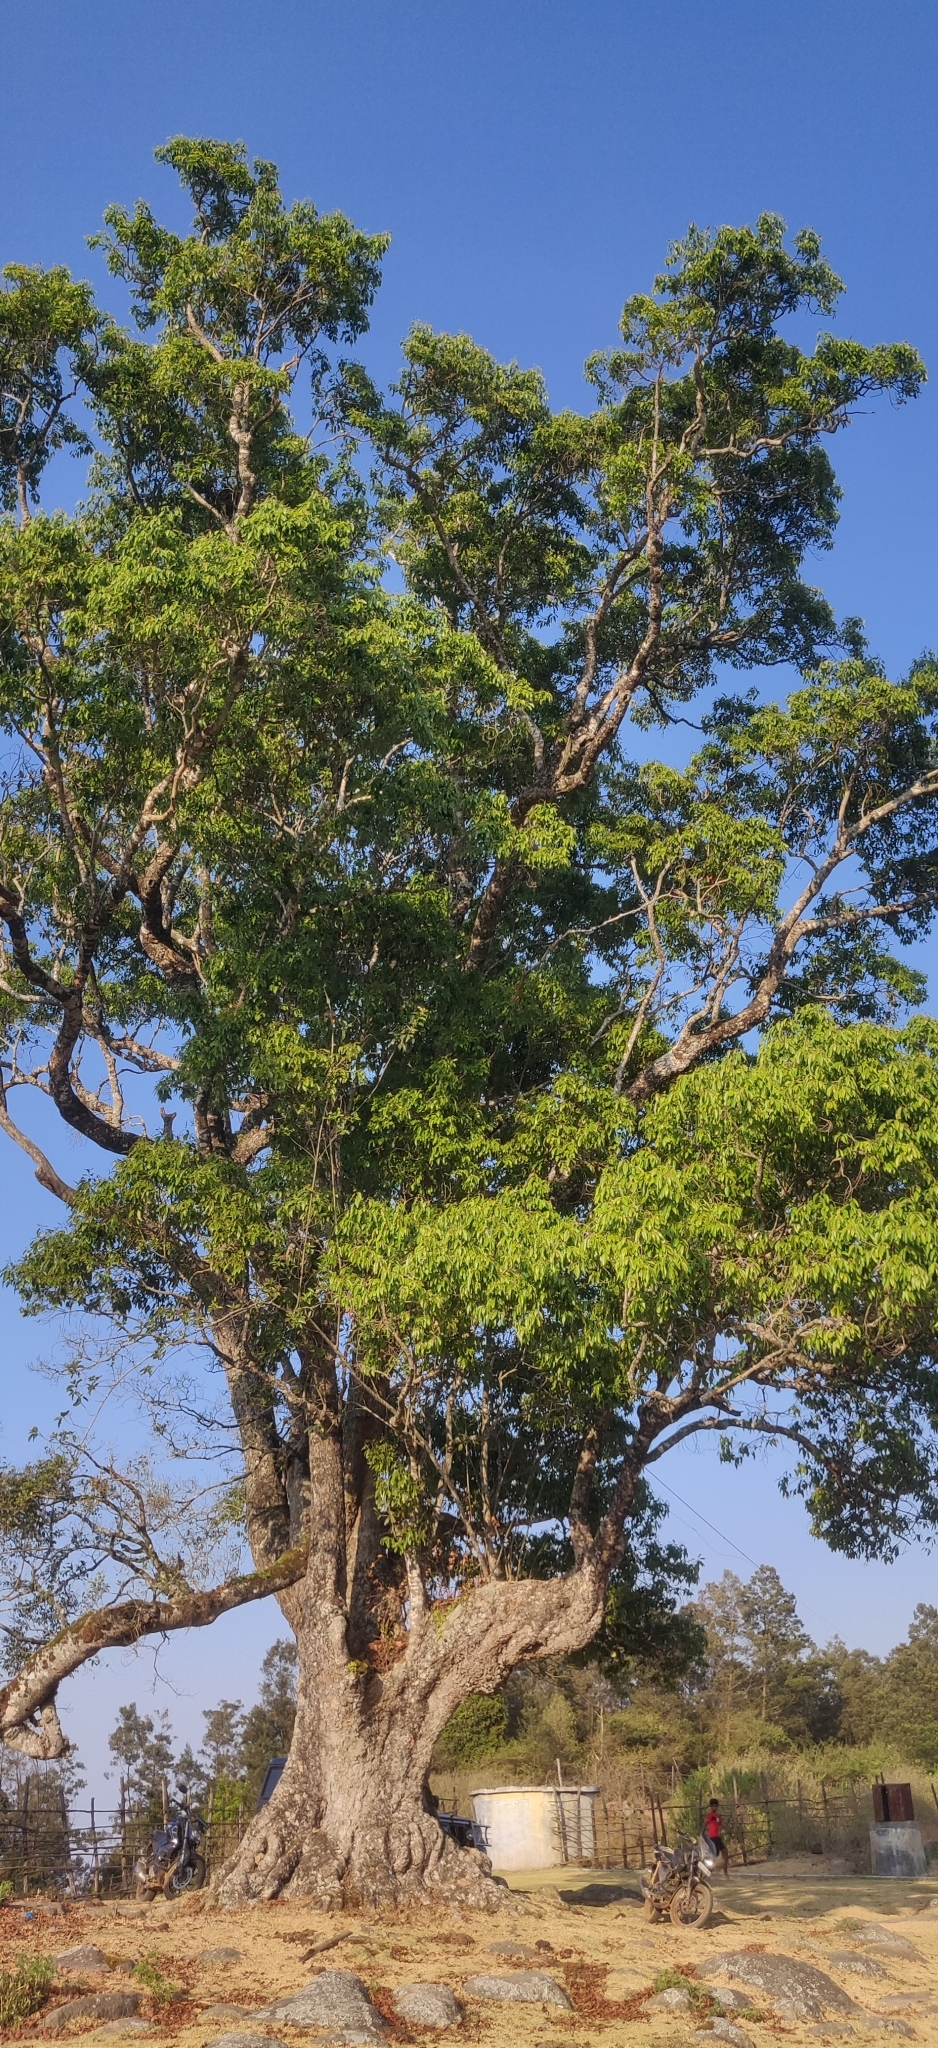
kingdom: Plantae
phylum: Tracheophyta
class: Magnoliopsida
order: Myrtales
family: Myrtaceae
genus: Syzygium
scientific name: Syzygium cumini
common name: Java plum
